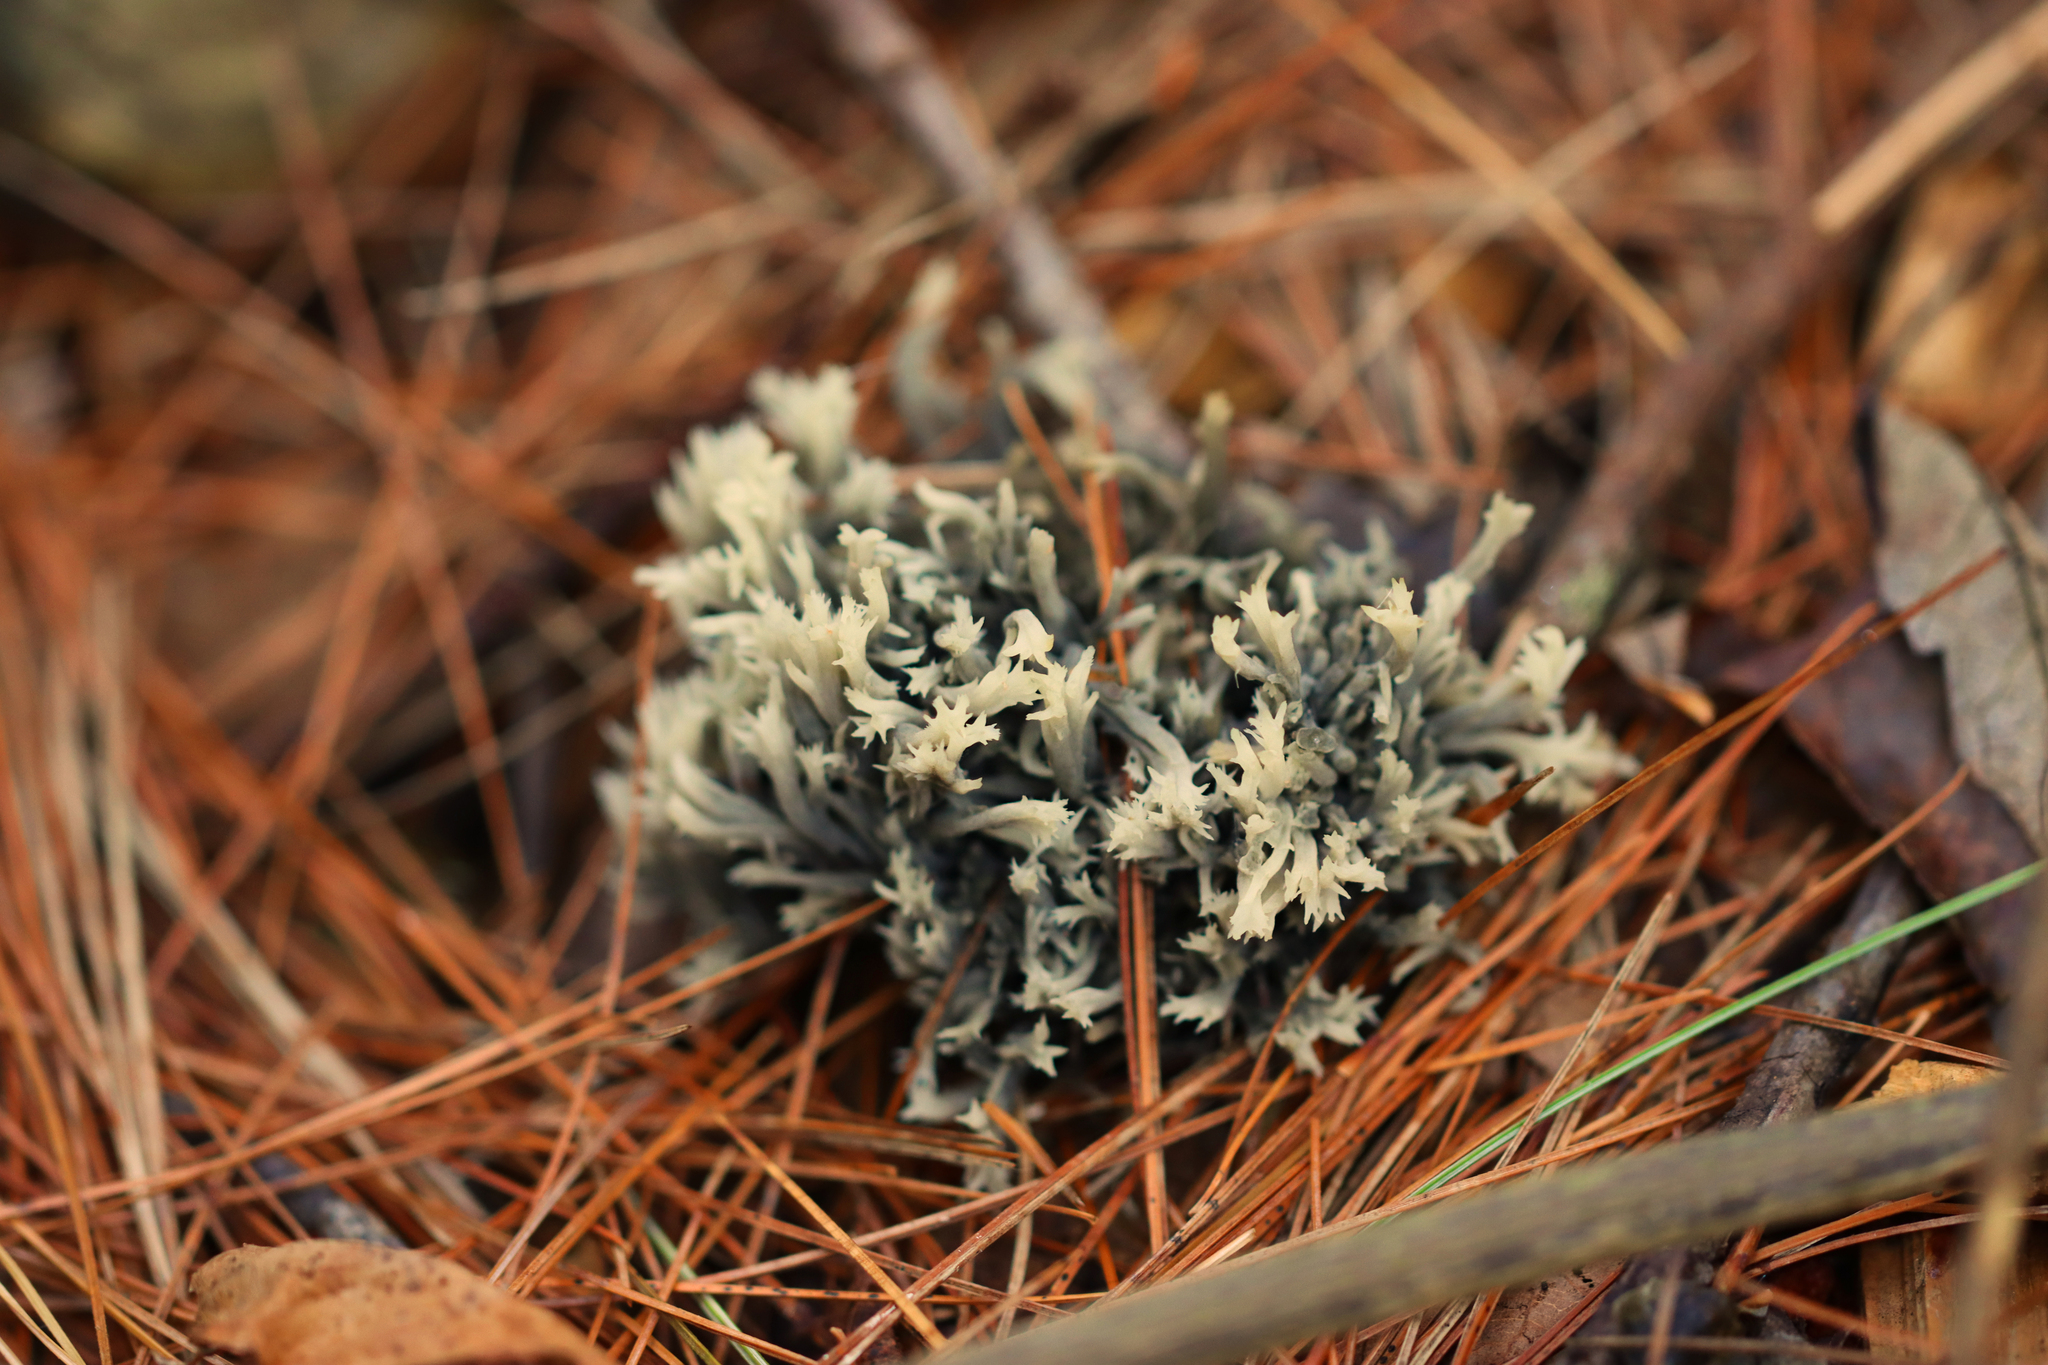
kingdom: Fungi
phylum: Ascomycota
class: Sordariomycetes
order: Sordariales
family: Helminthosphaeriaceae
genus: Helminthosphaeria
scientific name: Helminthosphaeria clavariarum
